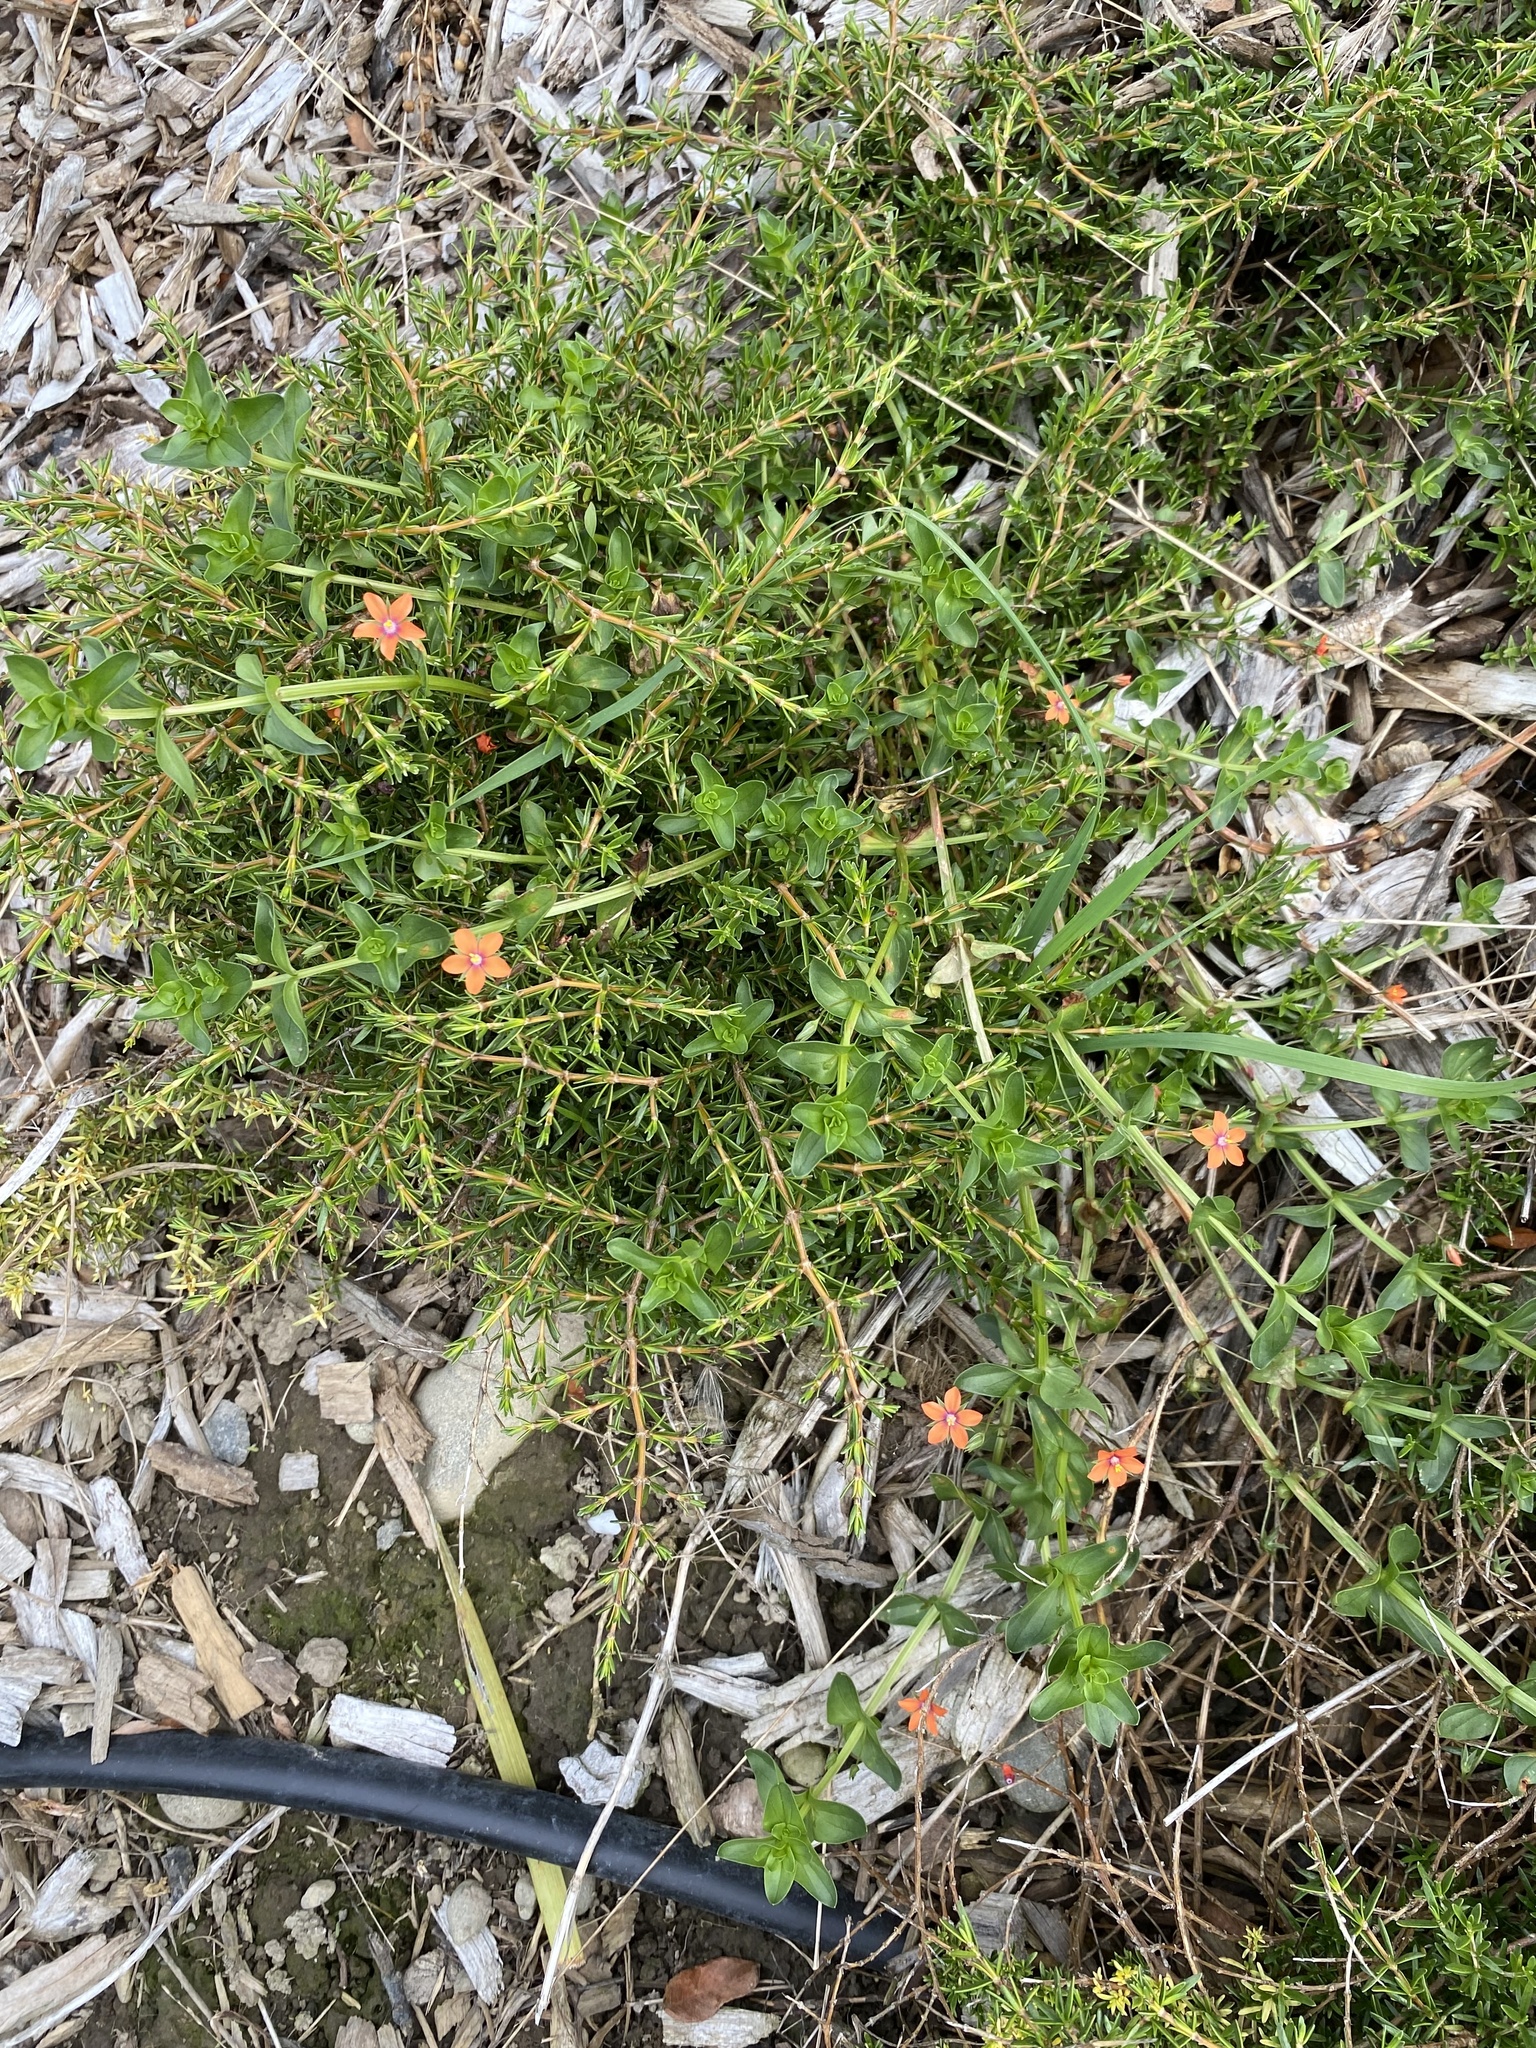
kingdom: Plantae
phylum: Tracheophyta
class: Magnoliopsida
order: Ericales
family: Primulaceae
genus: Lysimachia
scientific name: Lysimachia arvensis
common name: Scarlet pimpernel
